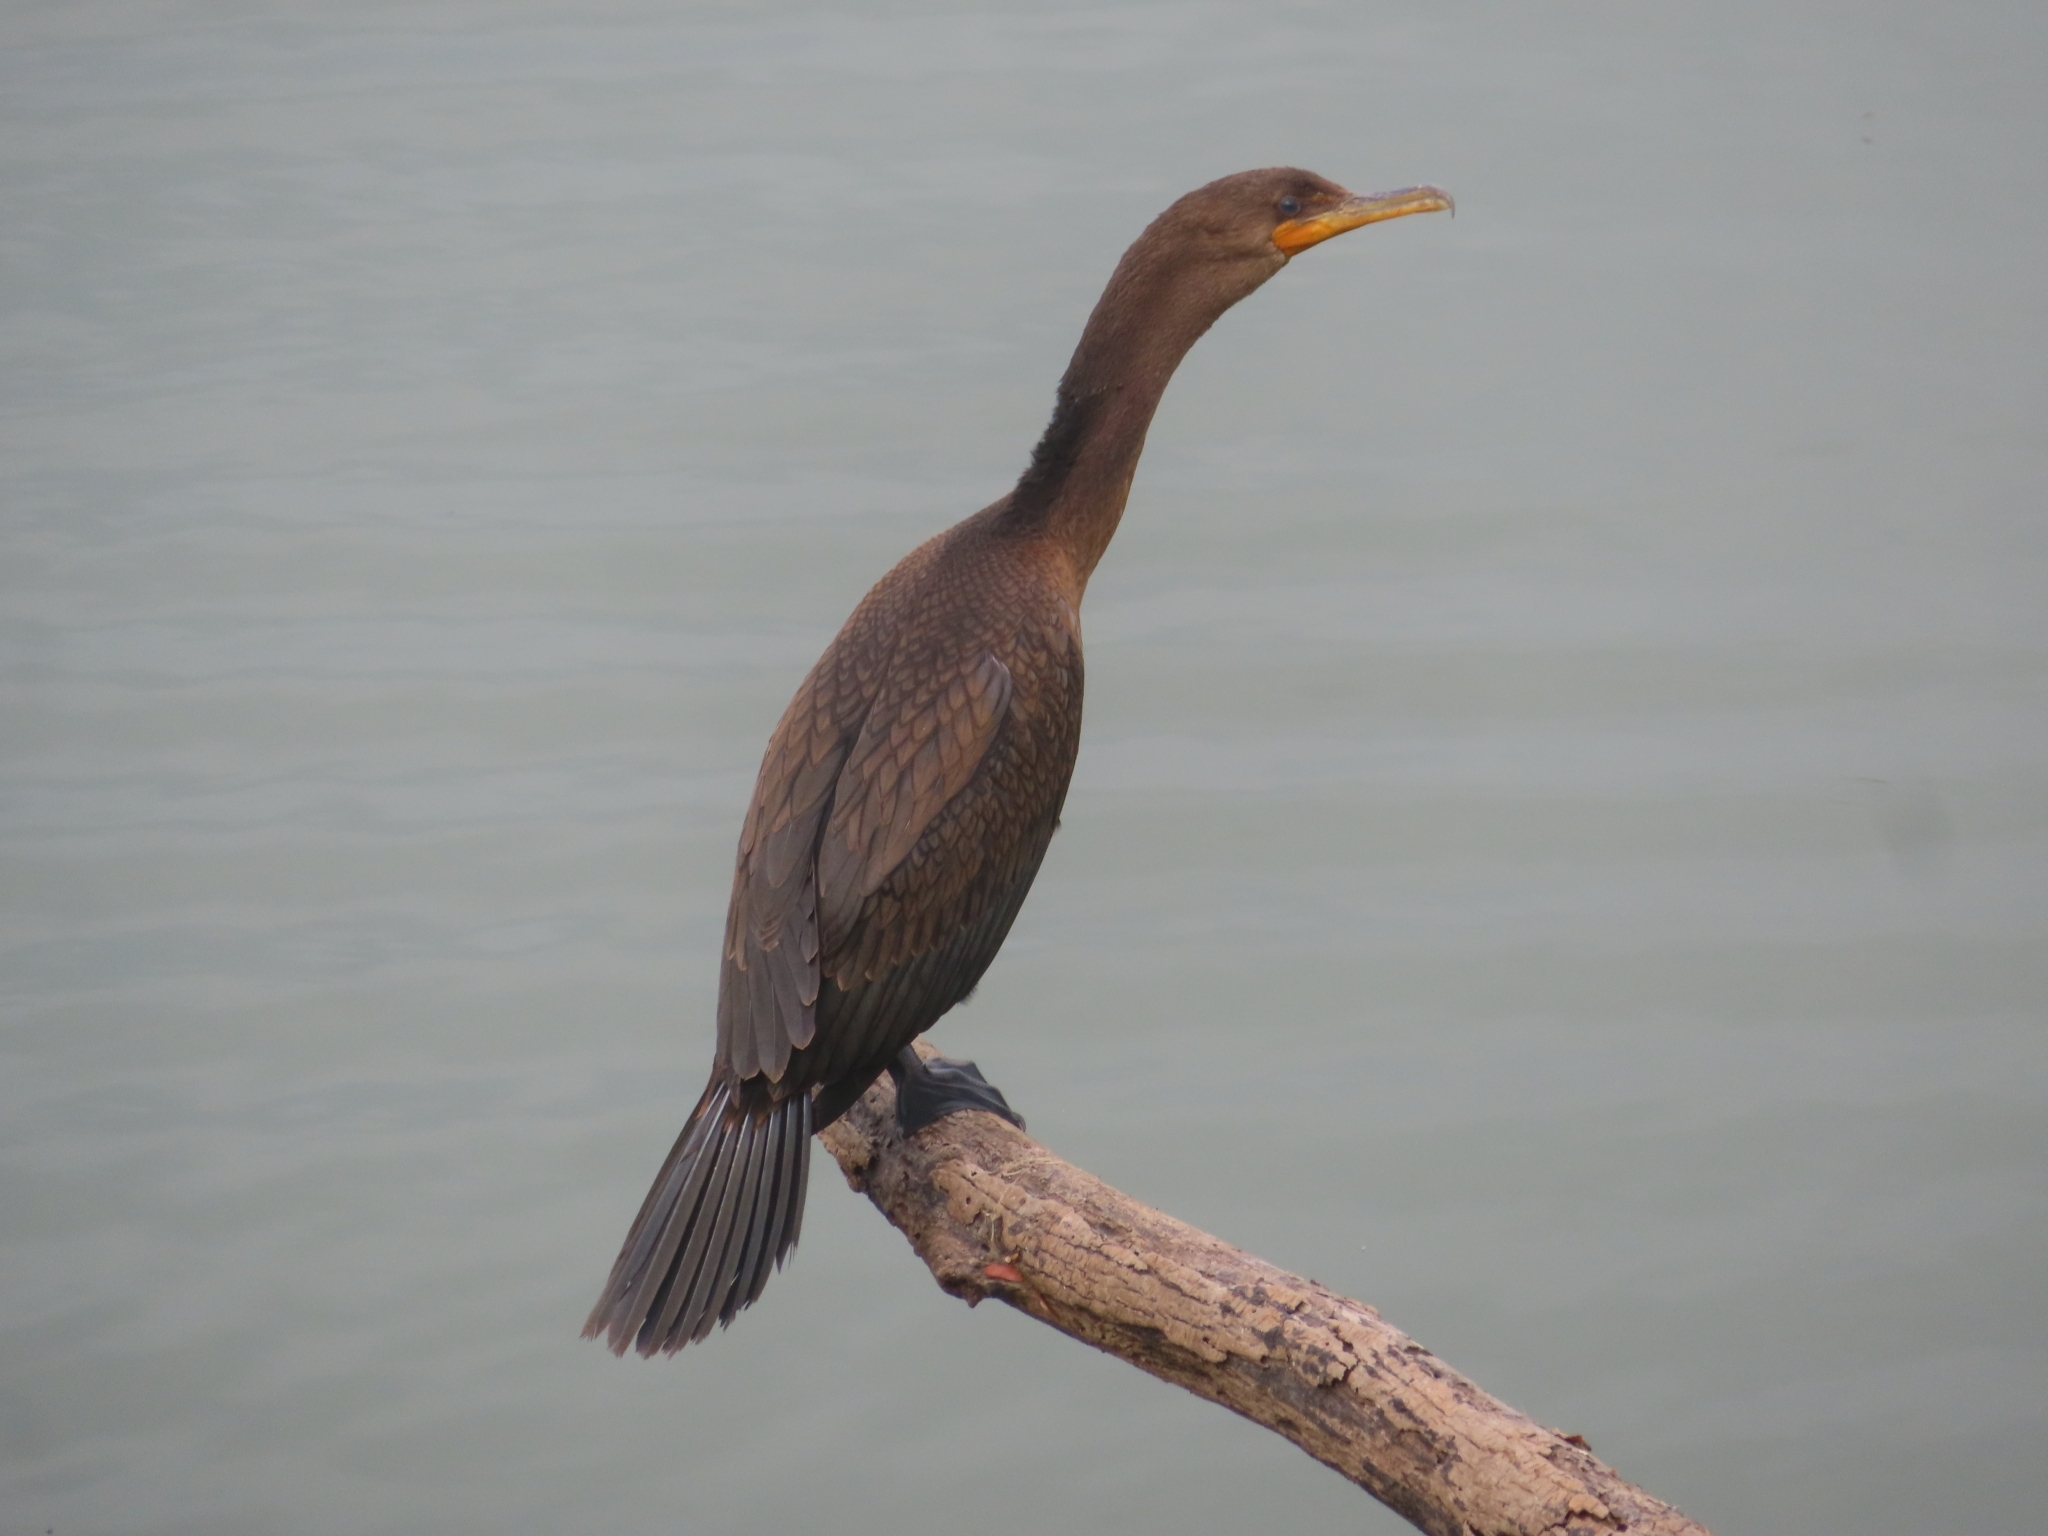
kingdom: Animalia
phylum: Chordata
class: Aves
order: Suliformes
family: Phalacrocoracidae
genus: Phalacrocorax
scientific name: Phalacrocorax auritus
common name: Double-crested cormorant
